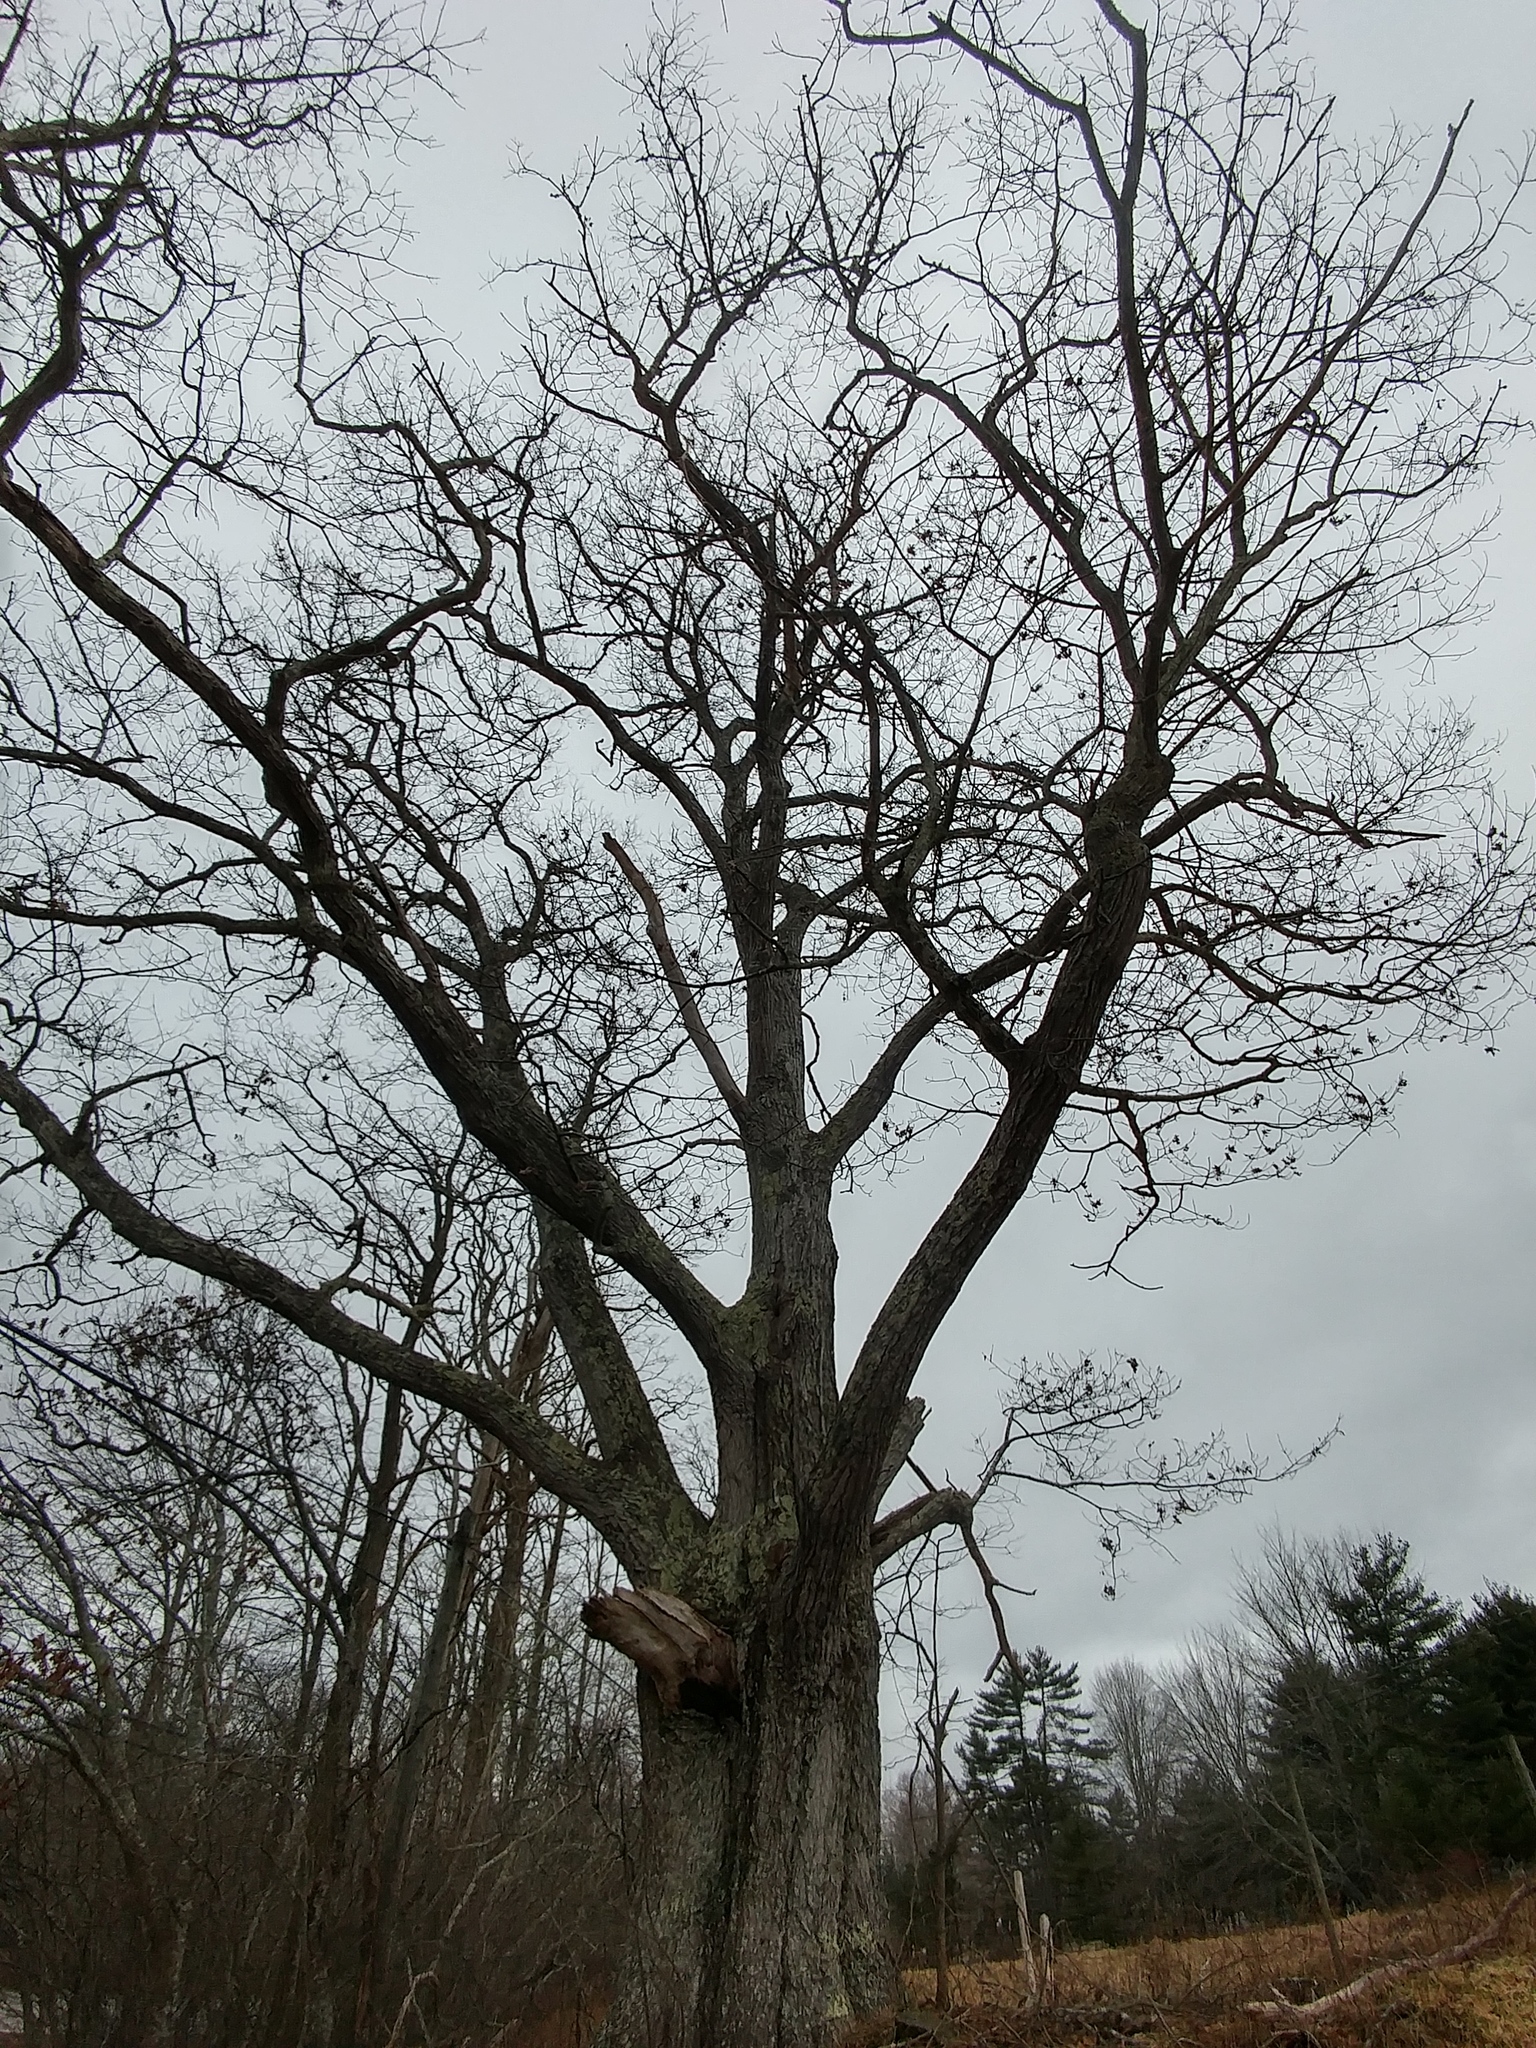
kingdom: Plantae
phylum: Tracheophyta
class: Magnoliopsida
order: Fagales
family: Fagaceae
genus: Quercus
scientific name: Quercus rubra
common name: Red oak
